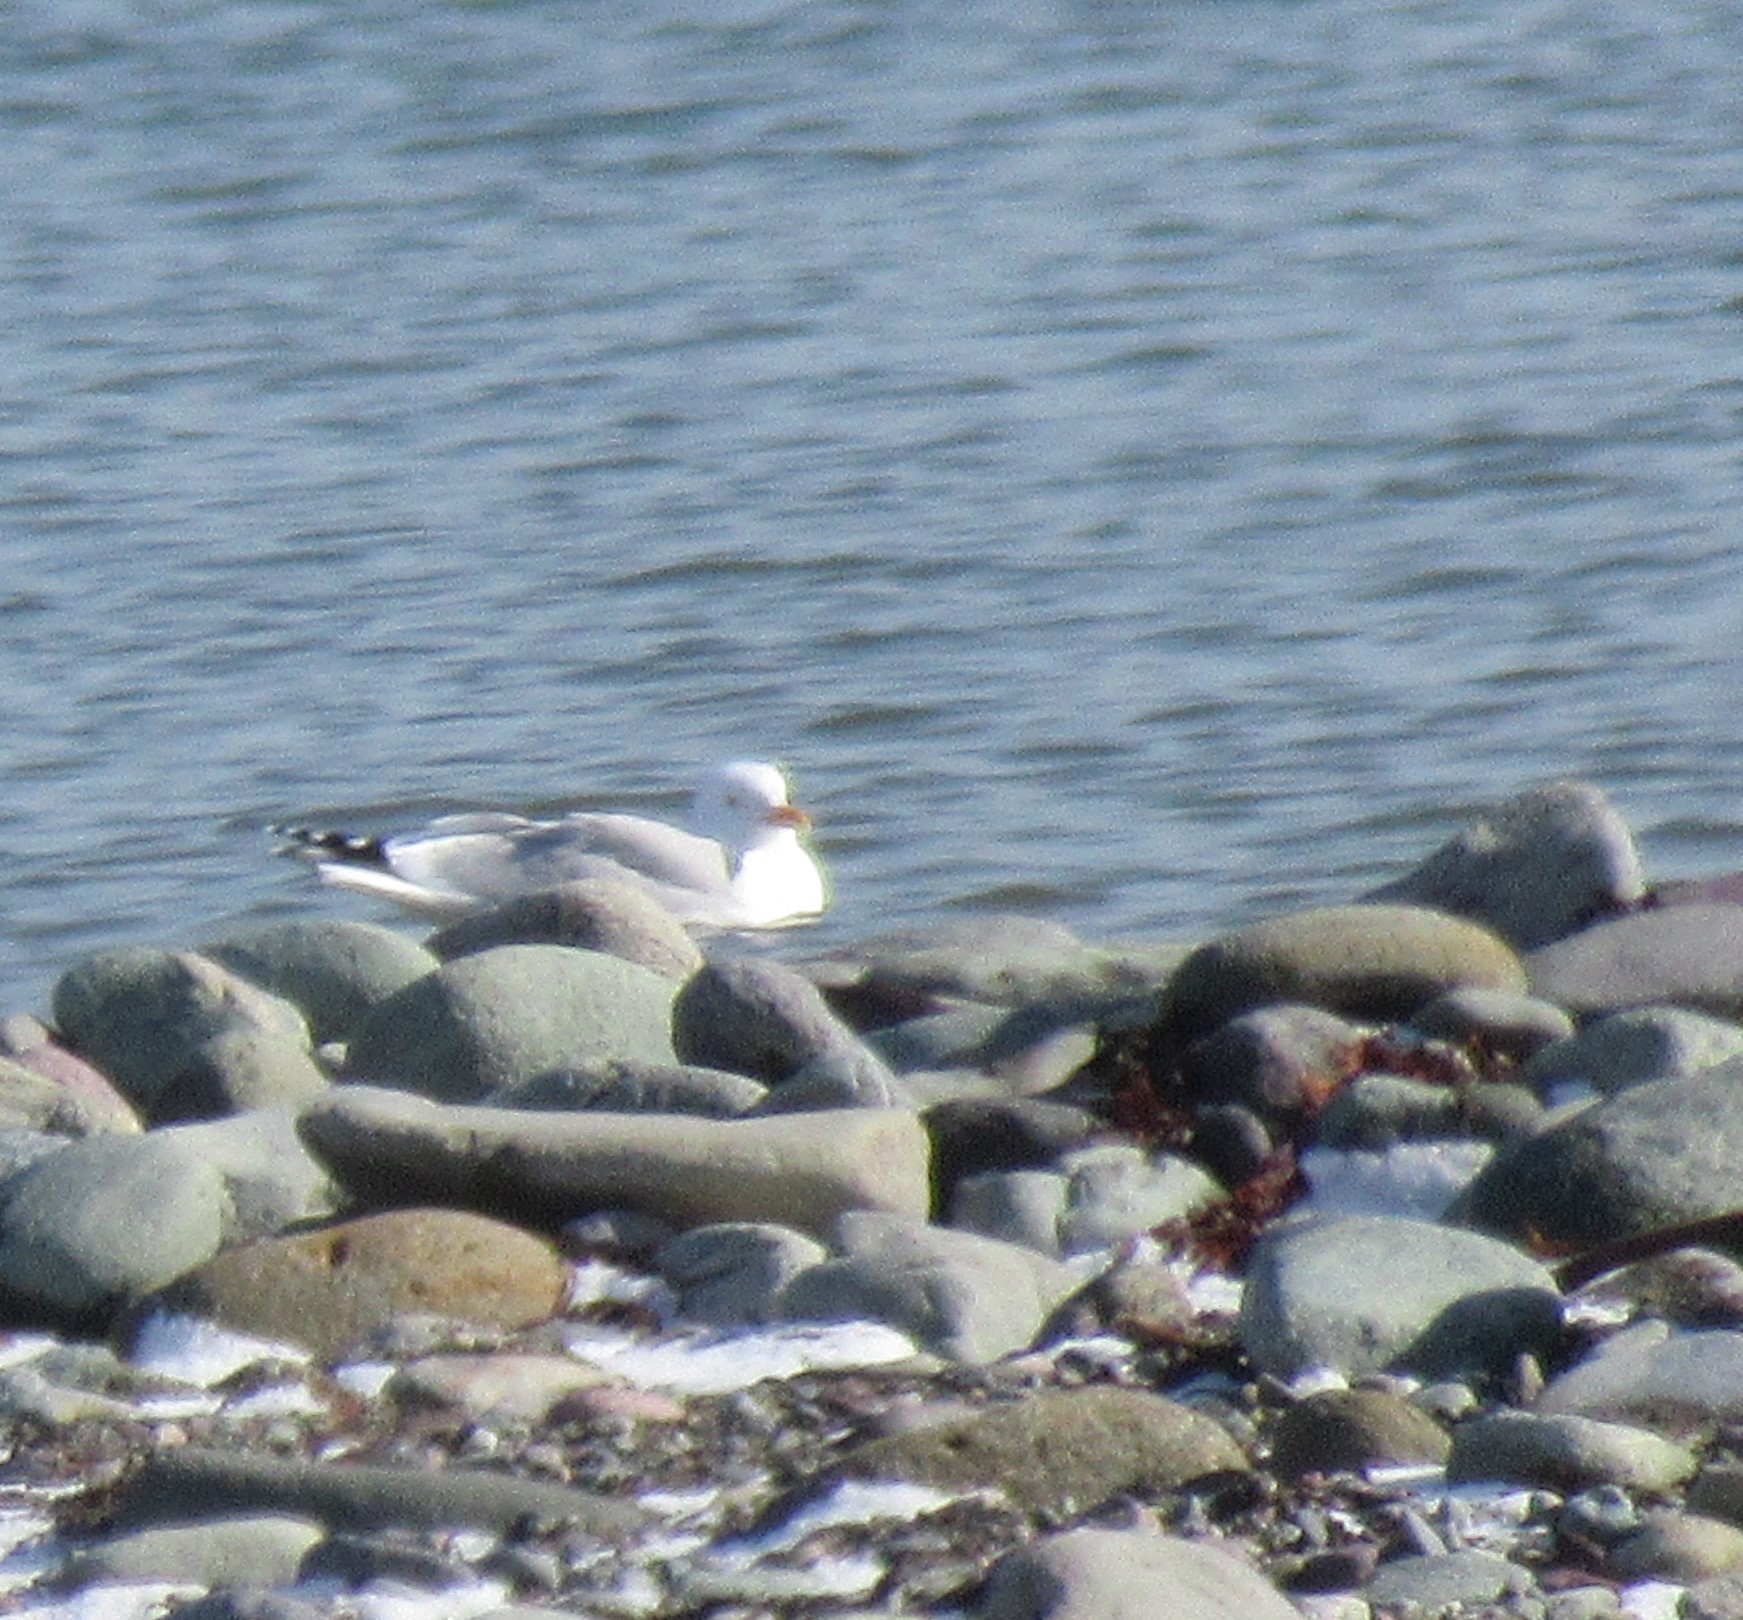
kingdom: Animalia
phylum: Chordata
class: Aves
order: Charadriiformes
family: Laridae
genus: Larus
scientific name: Larus argentatus
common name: Herring gull
